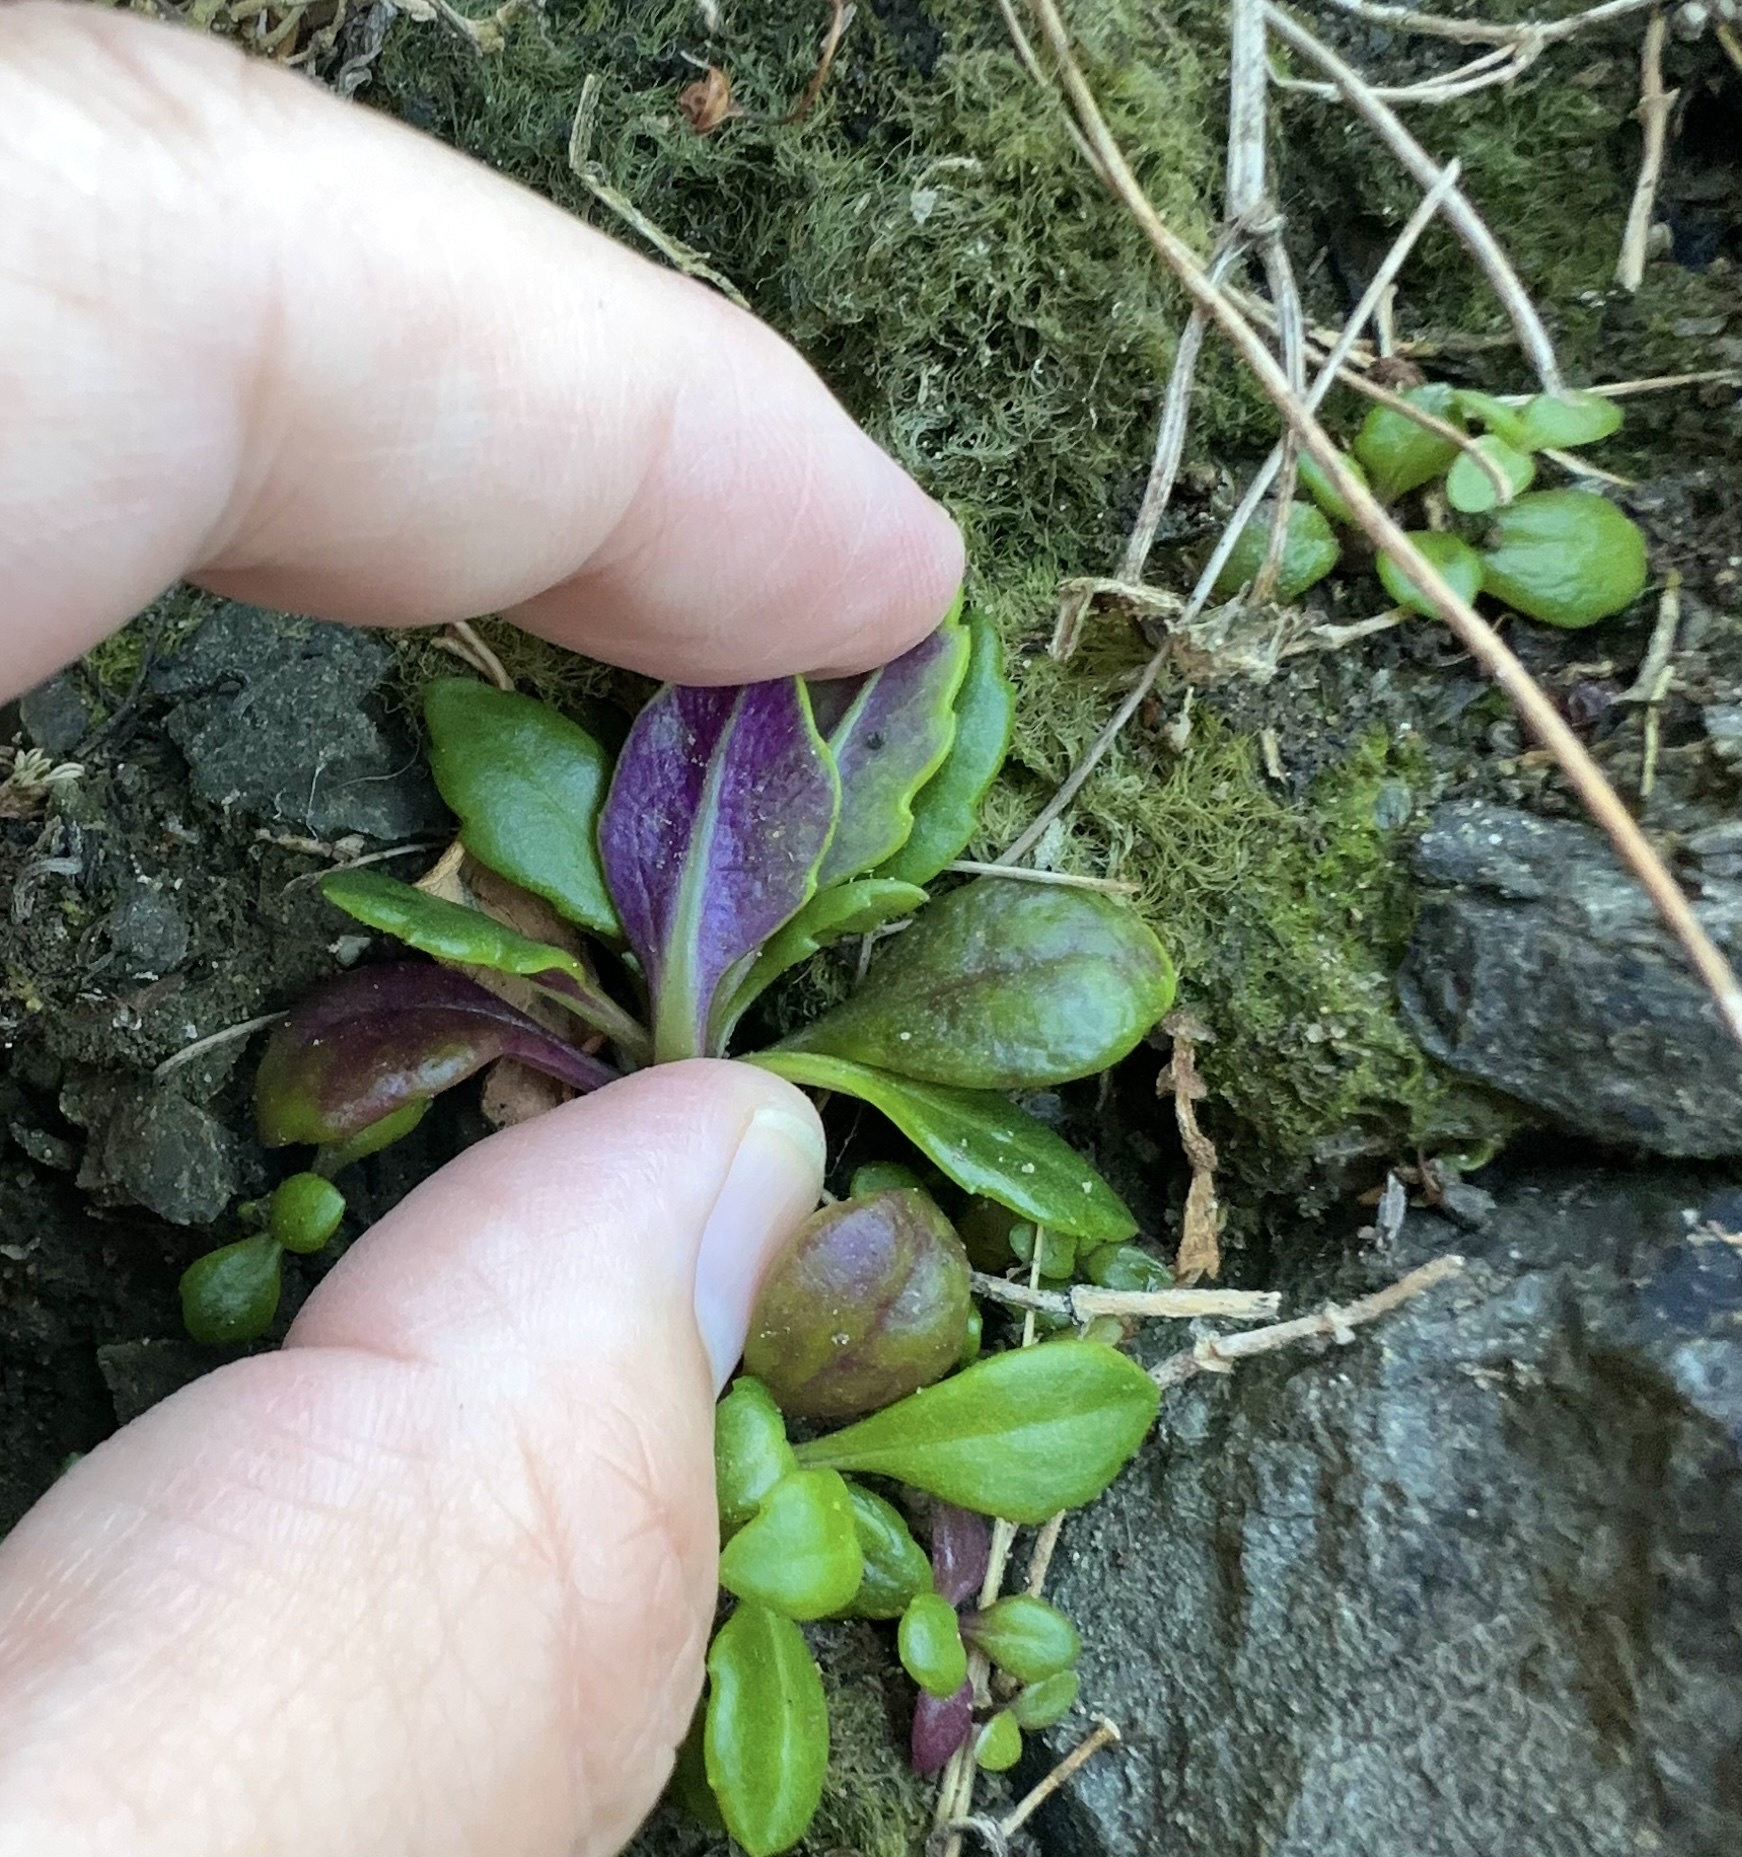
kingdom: Plantae
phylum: Tracheophyta
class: Magnoliopsida
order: Asterales
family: Asteraceae
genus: Senecio
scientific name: Senecio lautus
